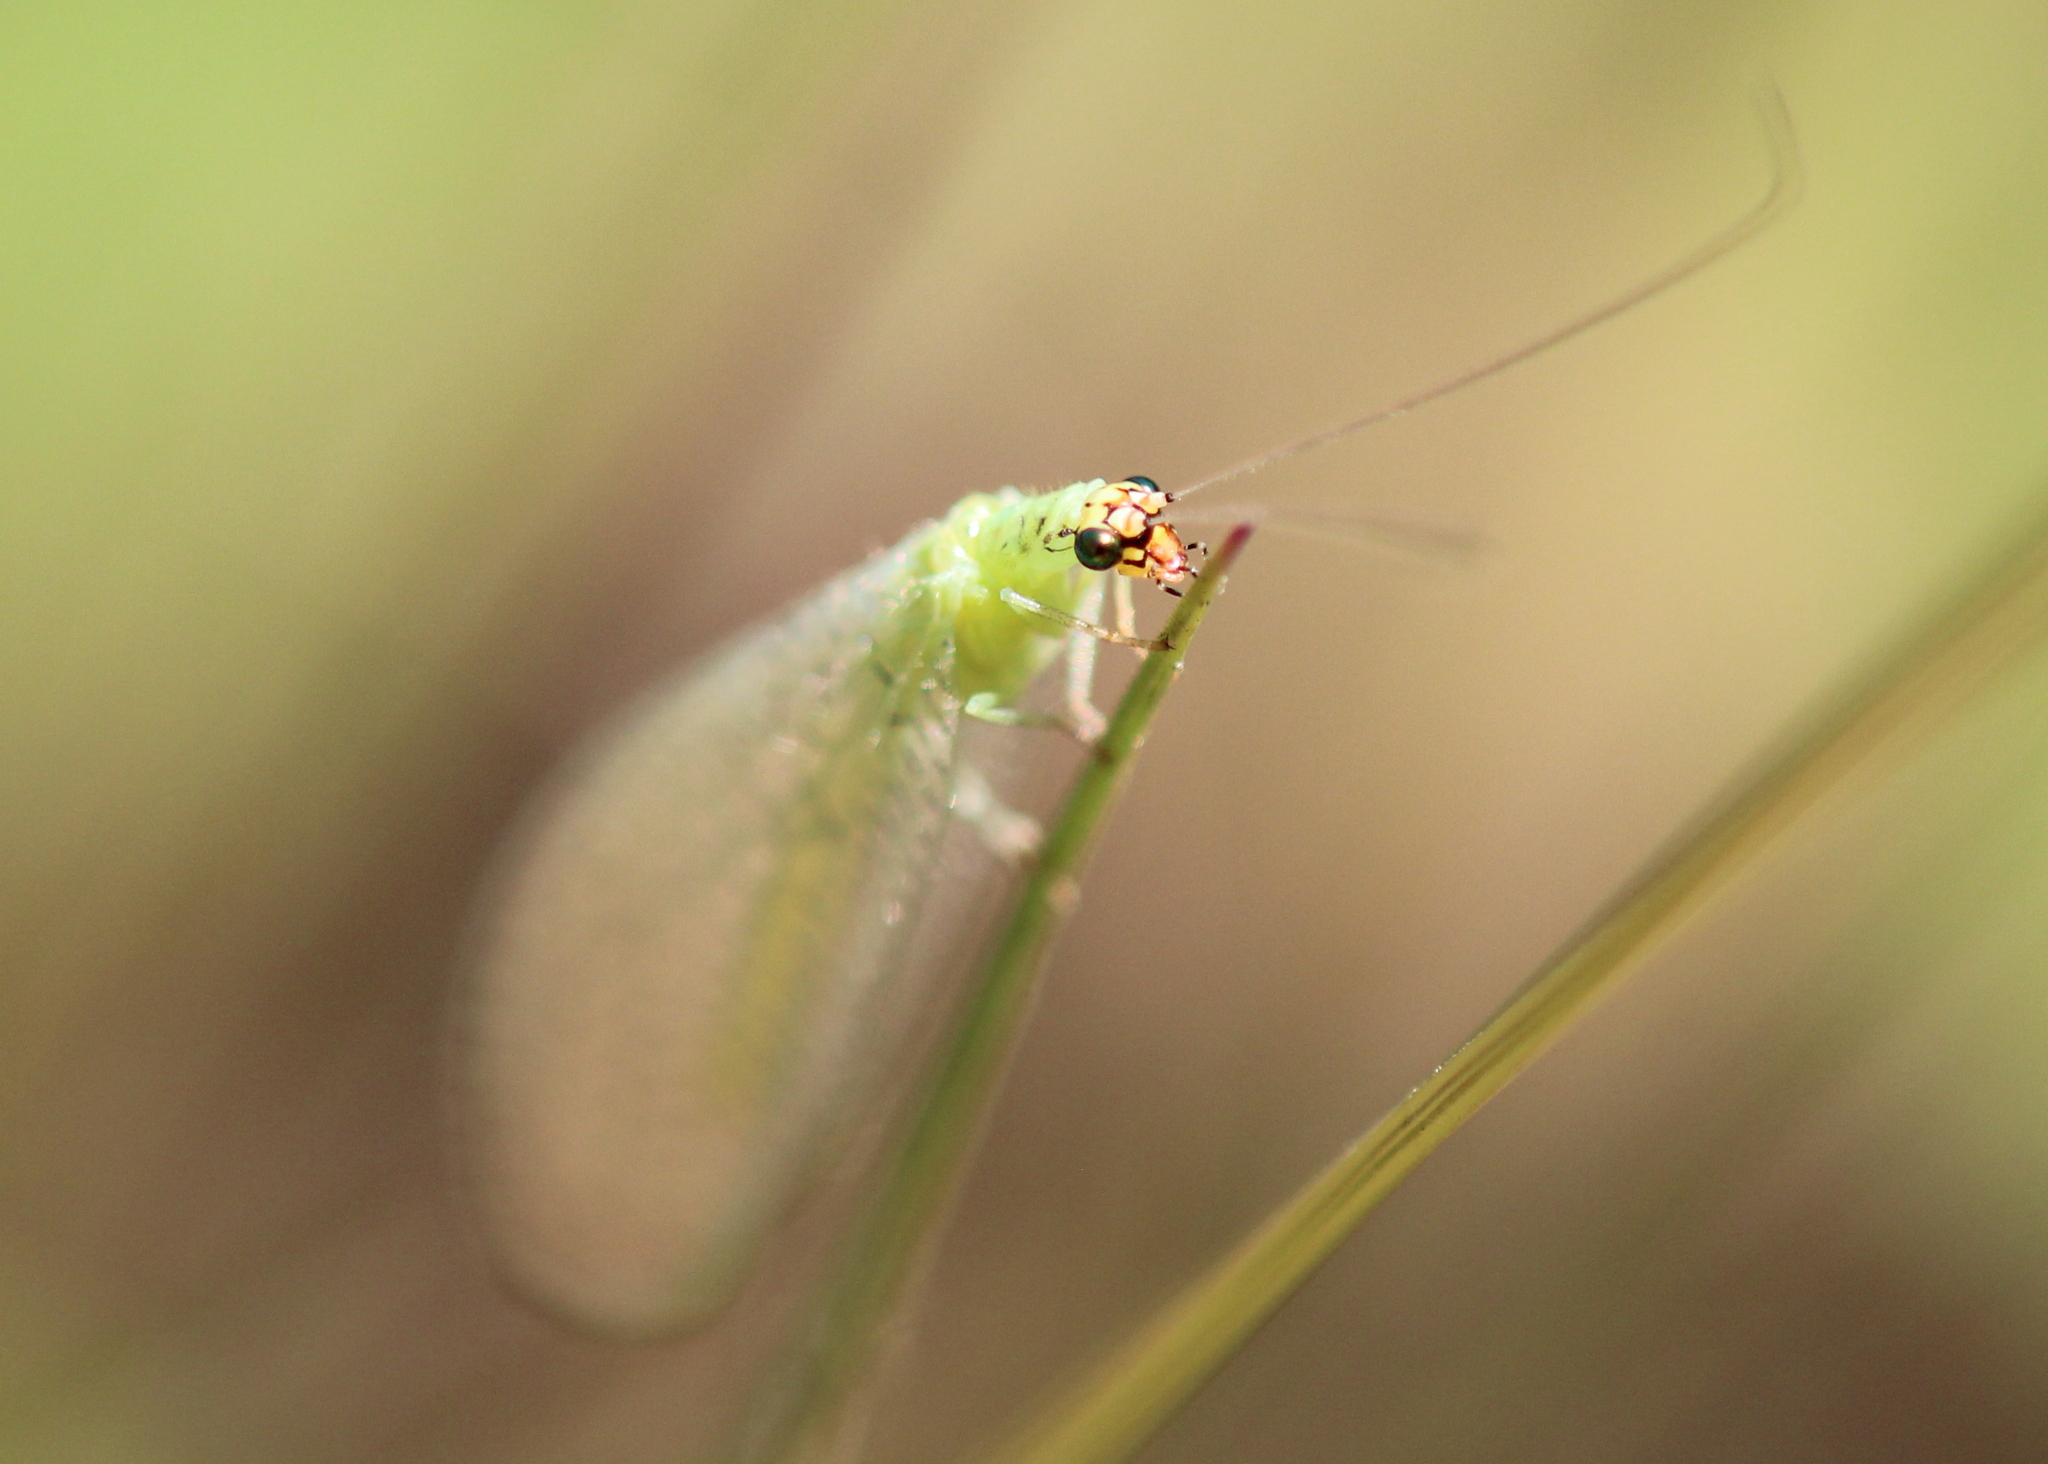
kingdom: Animalia
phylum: Arthropoda
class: Insecta
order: Neuroptera
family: Chrysopidae
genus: Chrysopa
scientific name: Chrysopa oculata
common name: Golden-eyed lacewing
